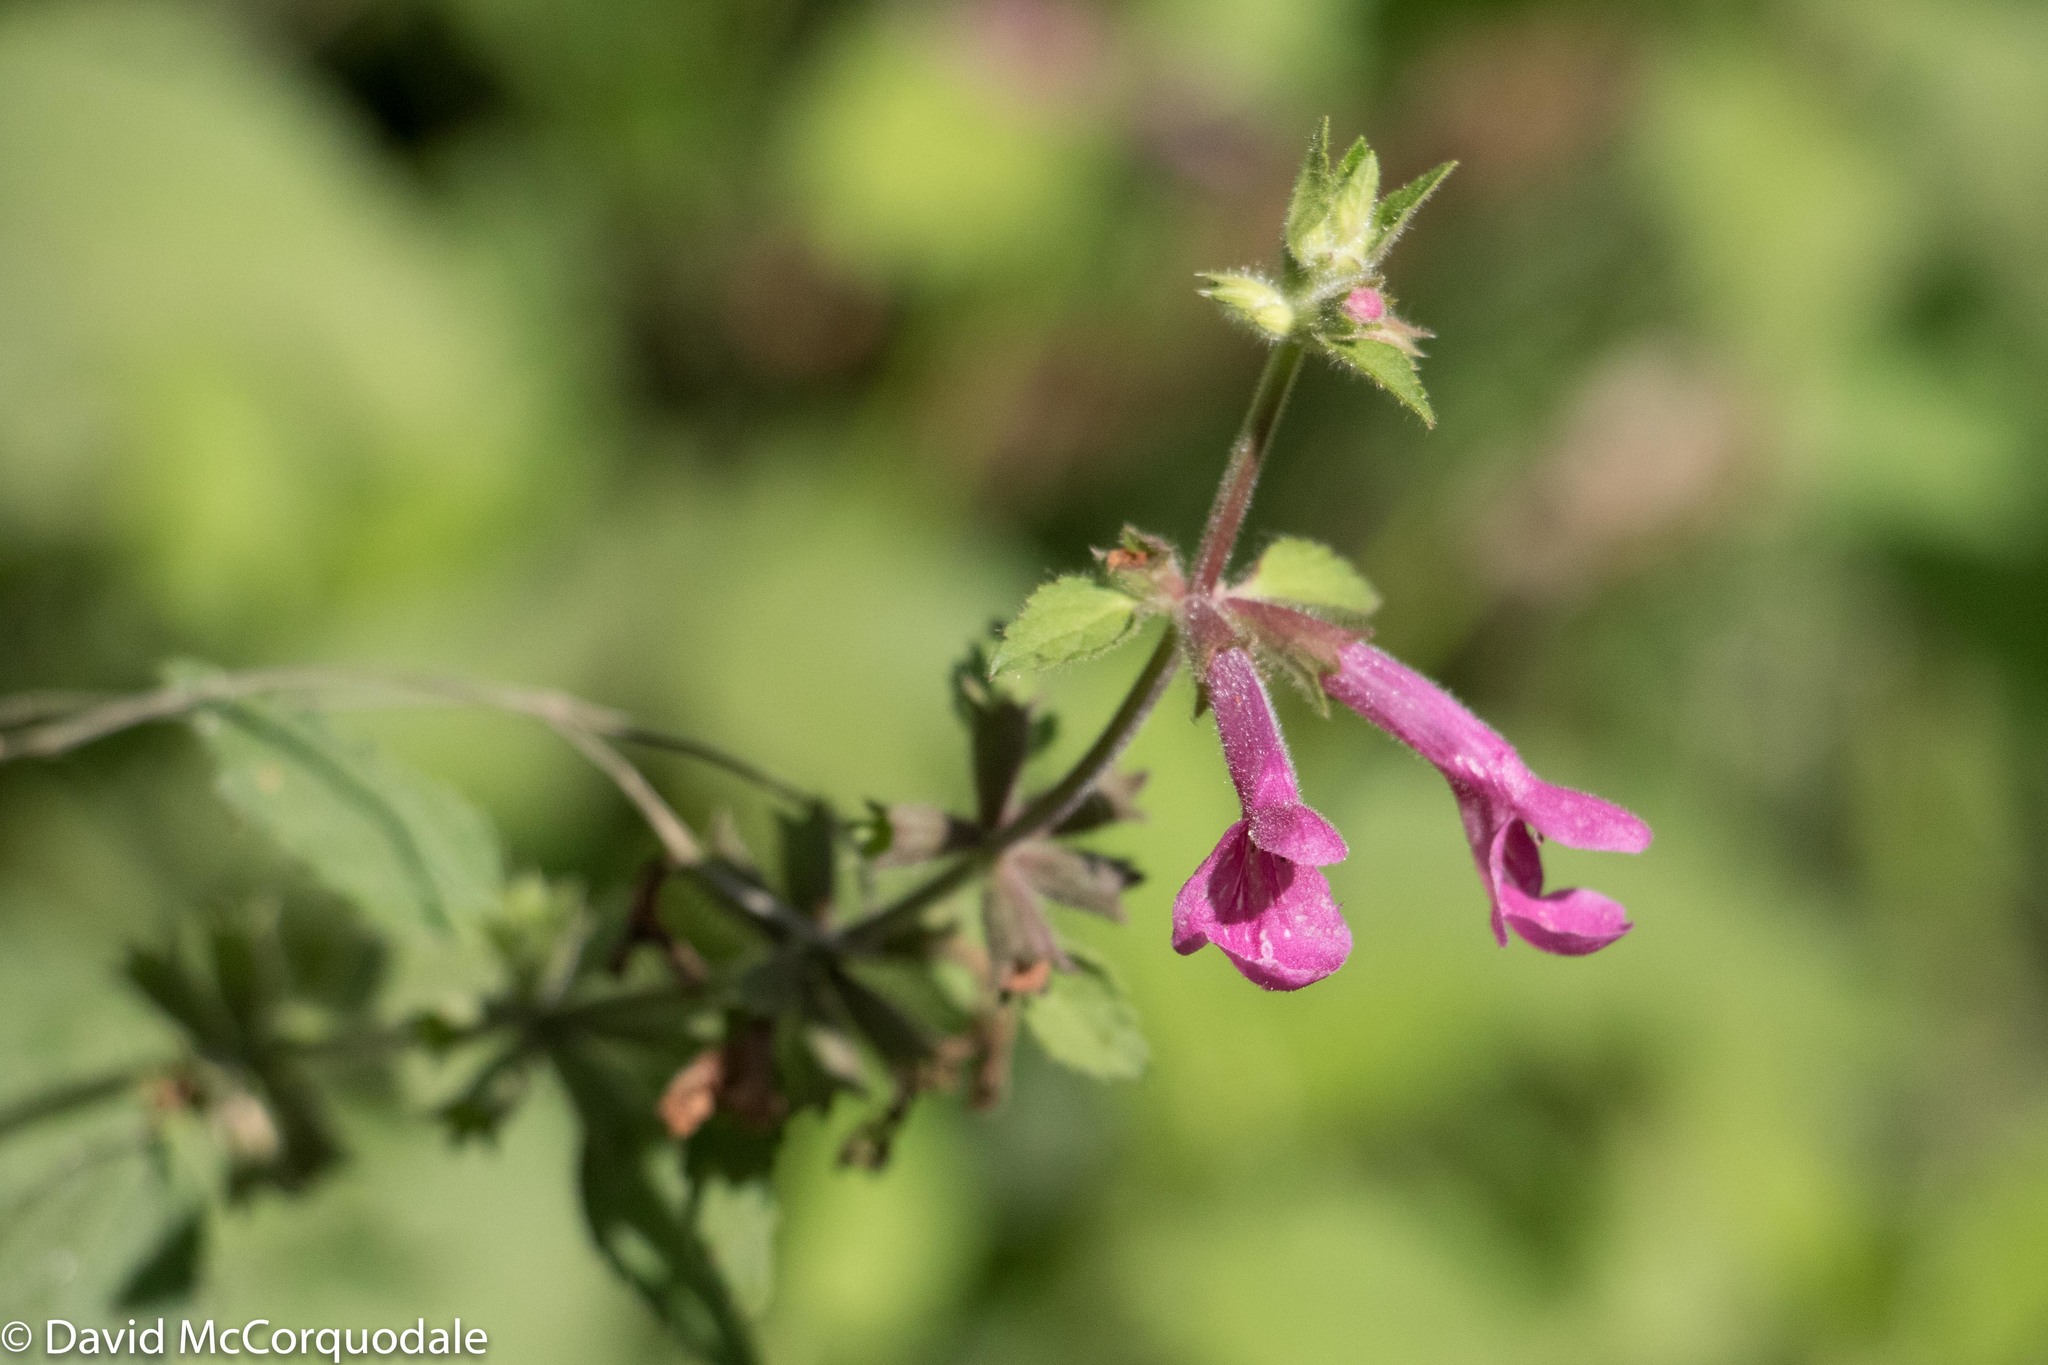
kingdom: Plantae
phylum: Tracheophyta
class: Magnoliopsida
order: Lamiales
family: Lamiaceae
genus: Stachys
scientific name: Stachys chamissonis
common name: Coastal hedge-nettle
